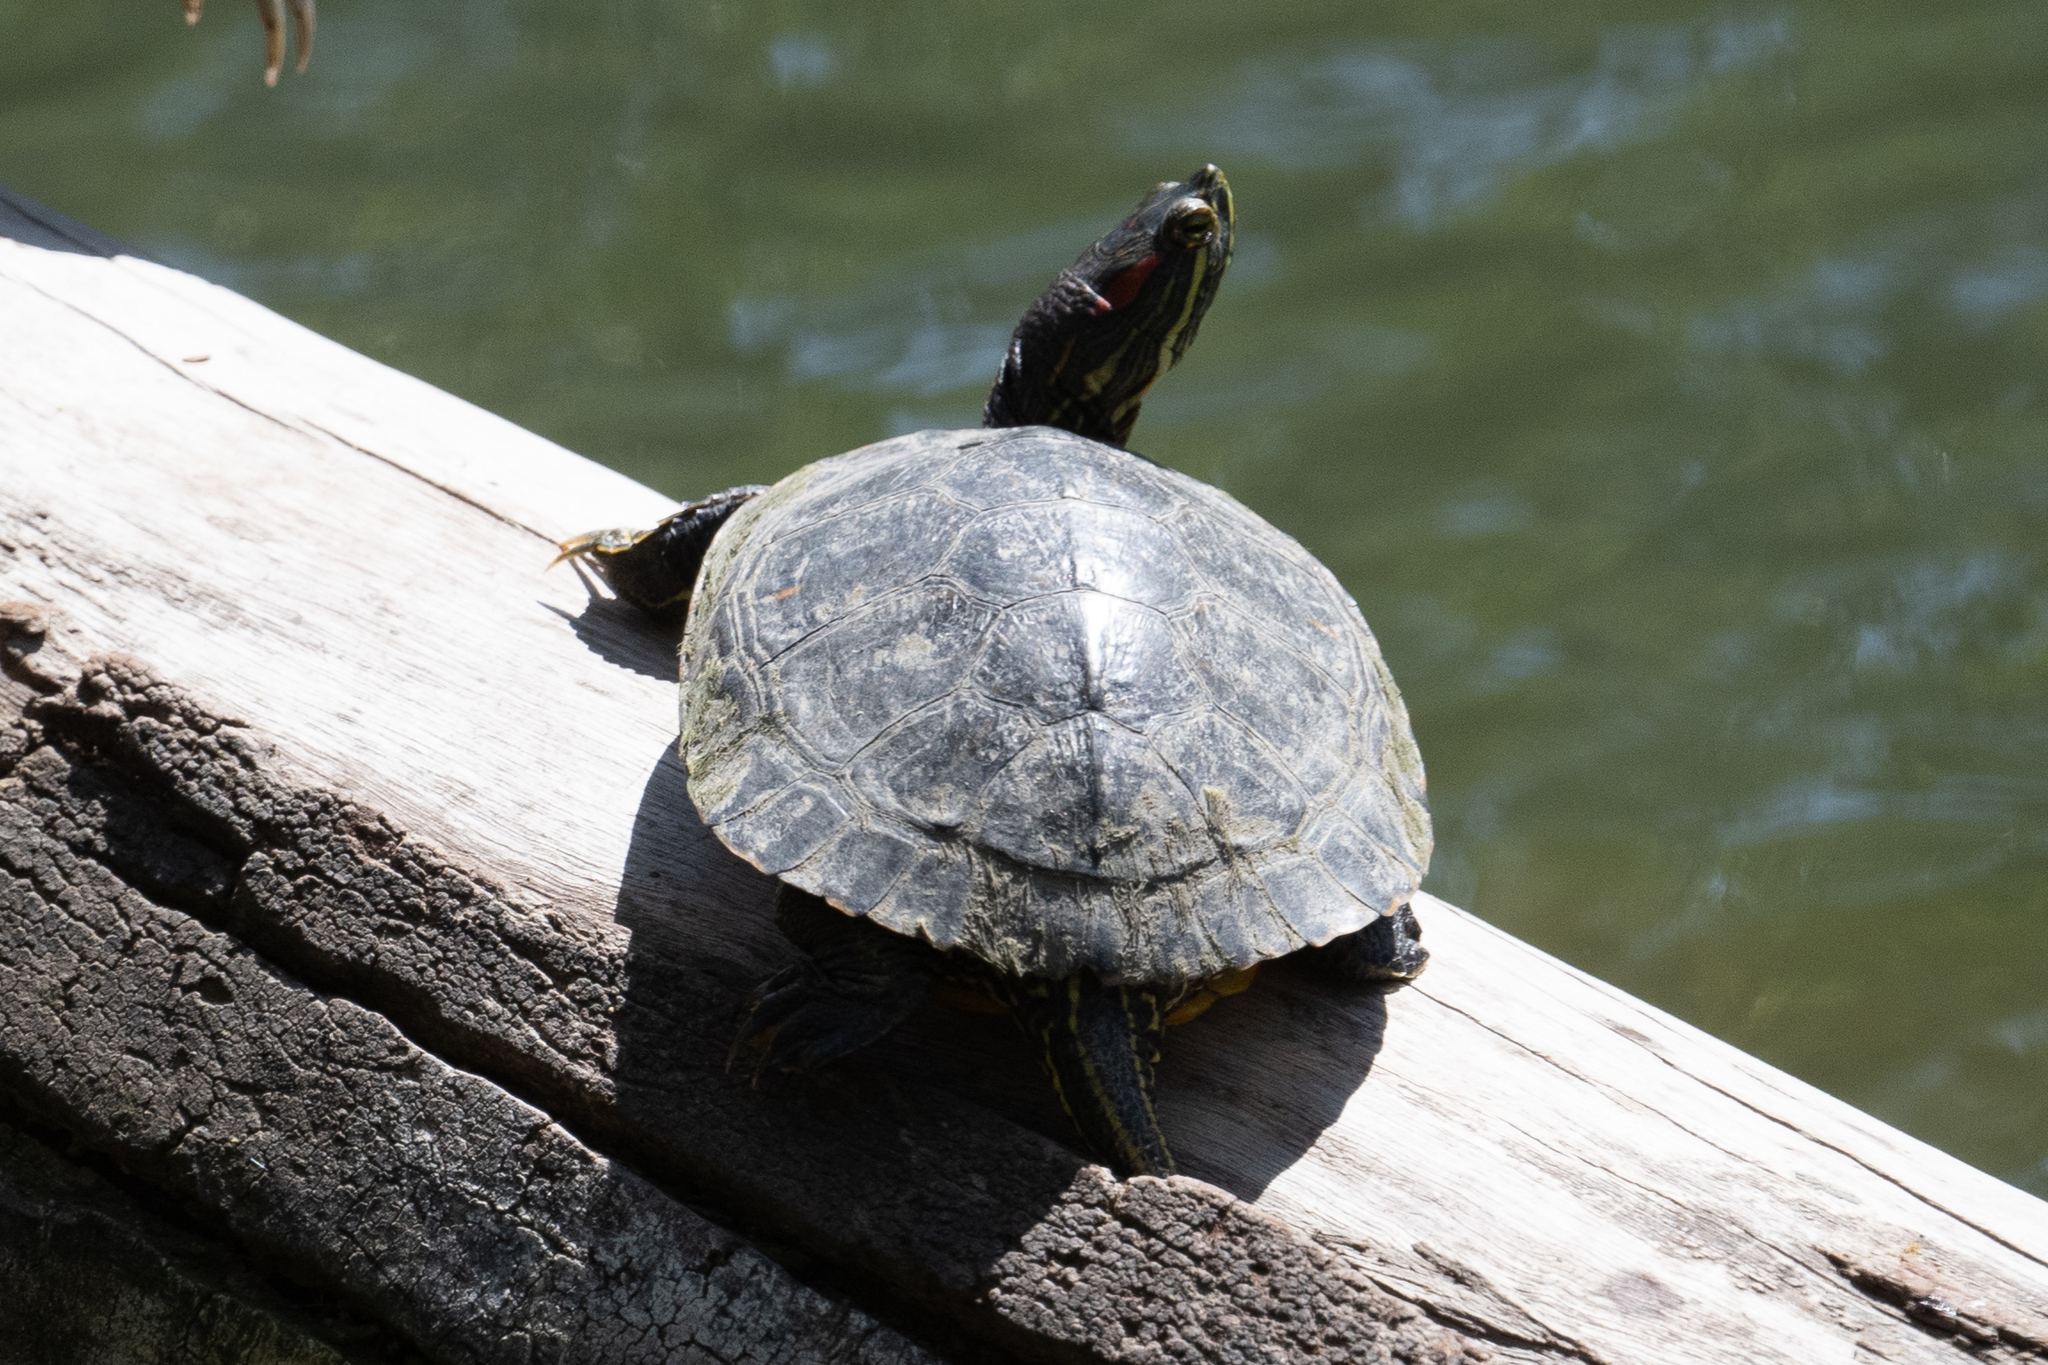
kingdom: Animalia
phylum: Chordata
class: Testudines
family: Emydidae
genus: Trachemys
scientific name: Trachemys scripta
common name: Slider
